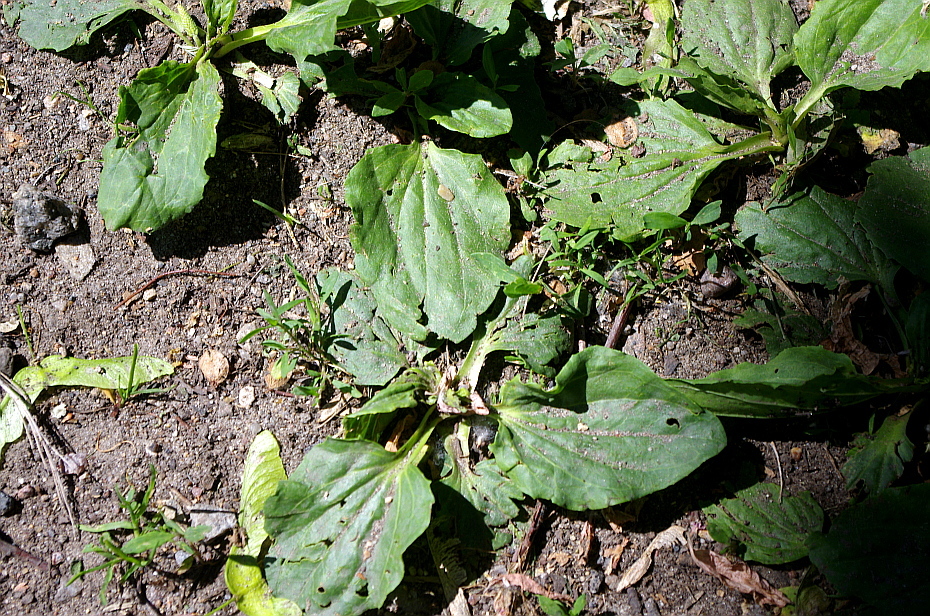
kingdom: Plantae
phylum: Tracheophyta
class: Magnoliopsida
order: Lamiales
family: Plantaginaceae
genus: Plantago
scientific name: Plantago major
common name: Common plantain
